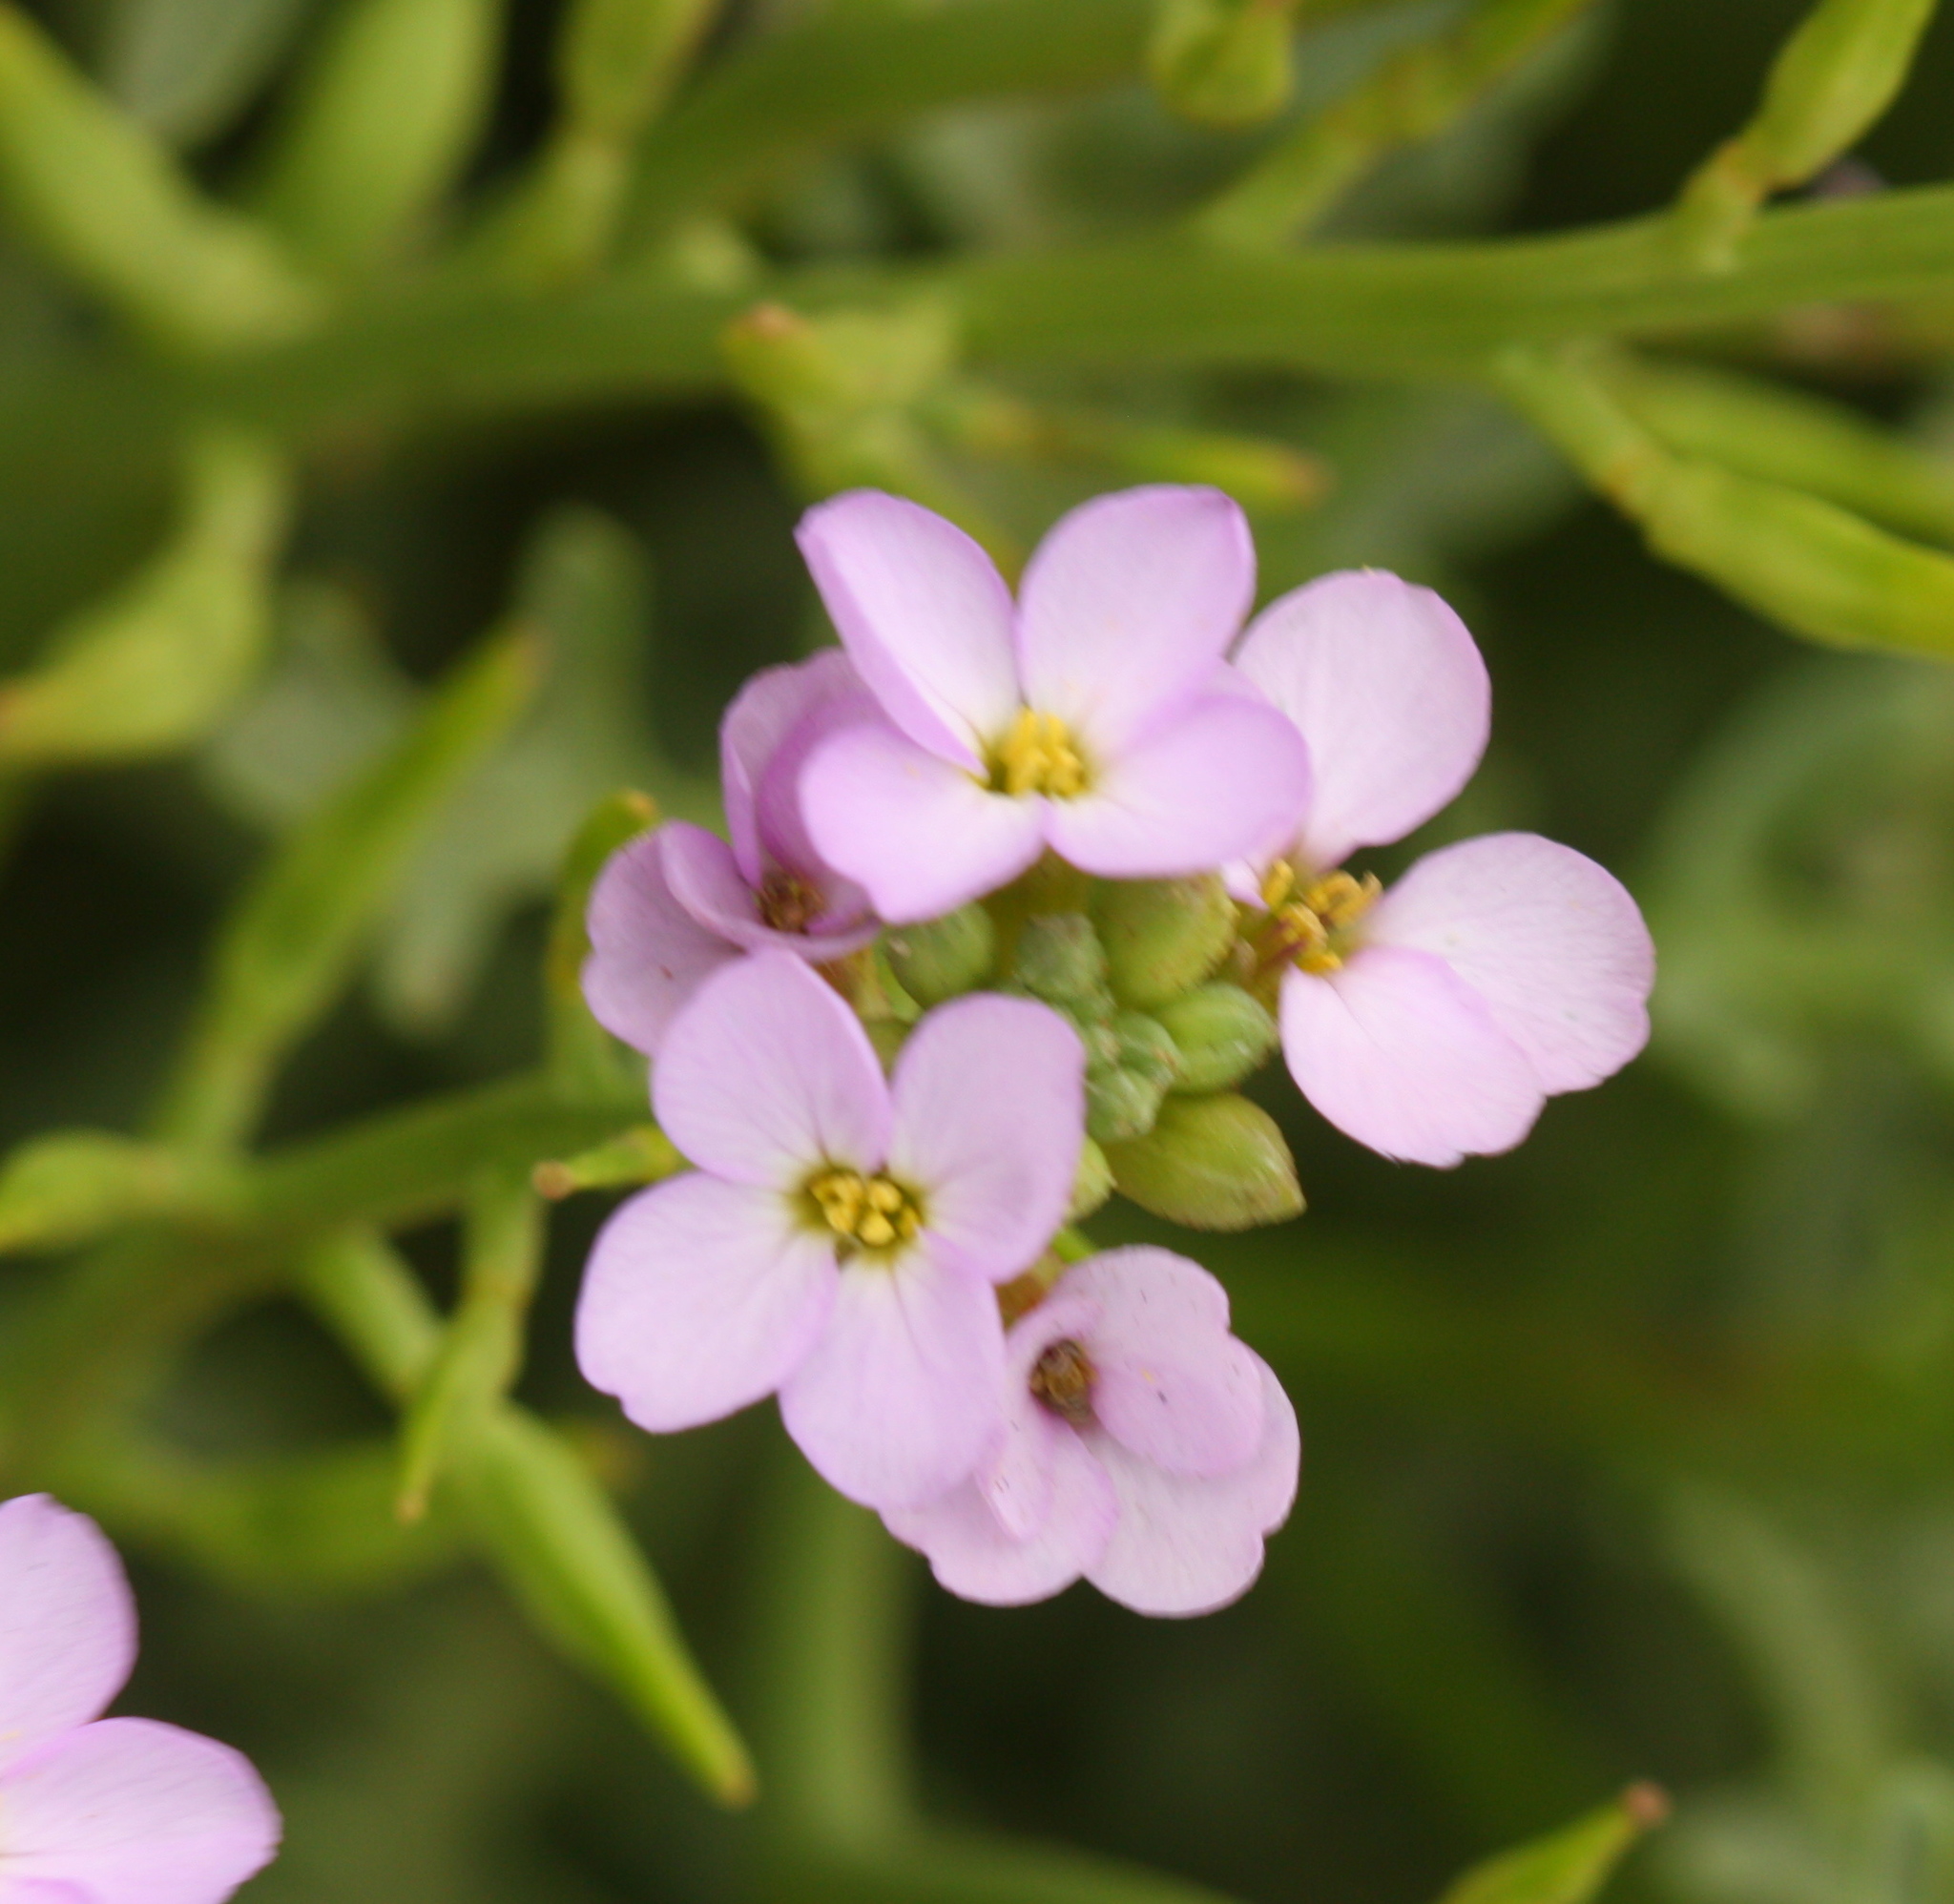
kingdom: Plantae
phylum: Tracheophyta
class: Magnoliopsida
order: Brassicales
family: Brassicaceae
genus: Cakile
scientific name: Cakile maritima
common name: Sea rocket
